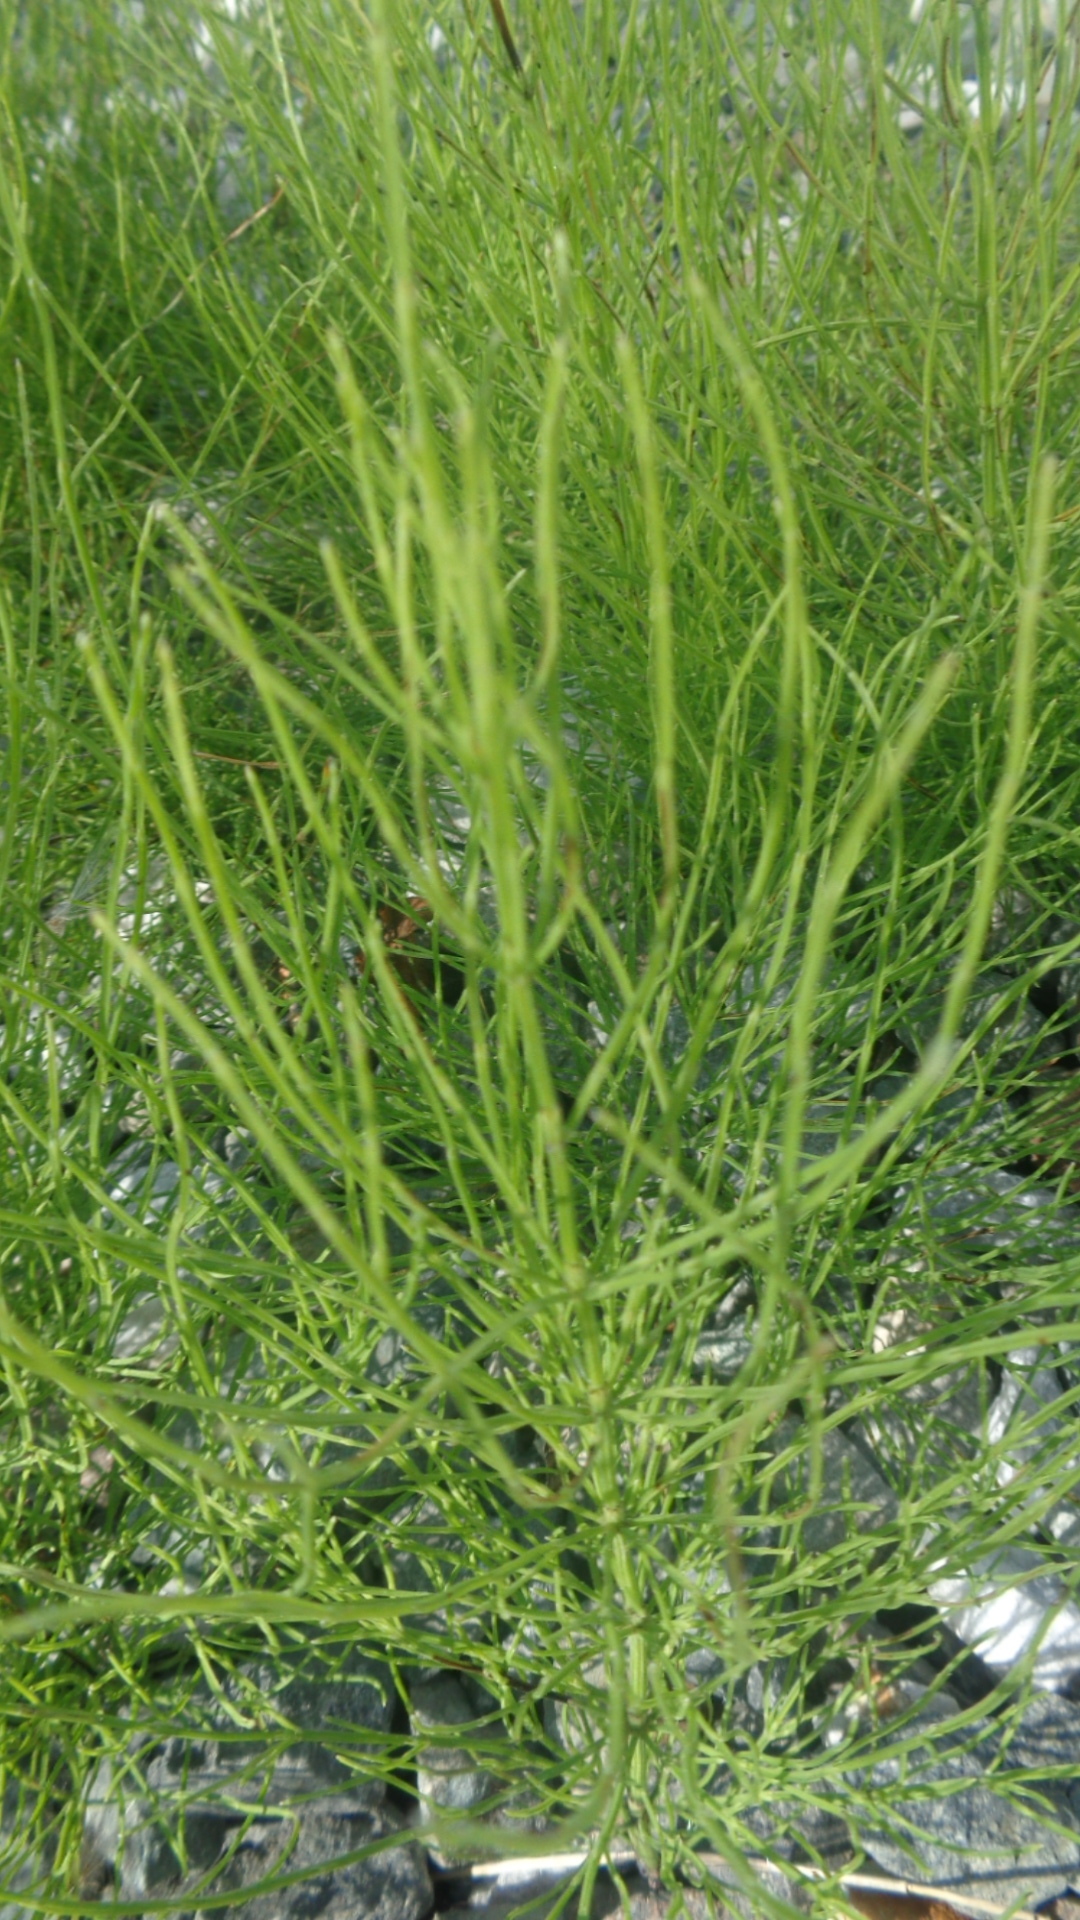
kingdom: Plantae
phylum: Tracheophyta
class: Polypodiopsida
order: Equisetales
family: Equisetaceae
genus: Equisetum
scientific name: Equisetum arvense
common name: Field horsetail
